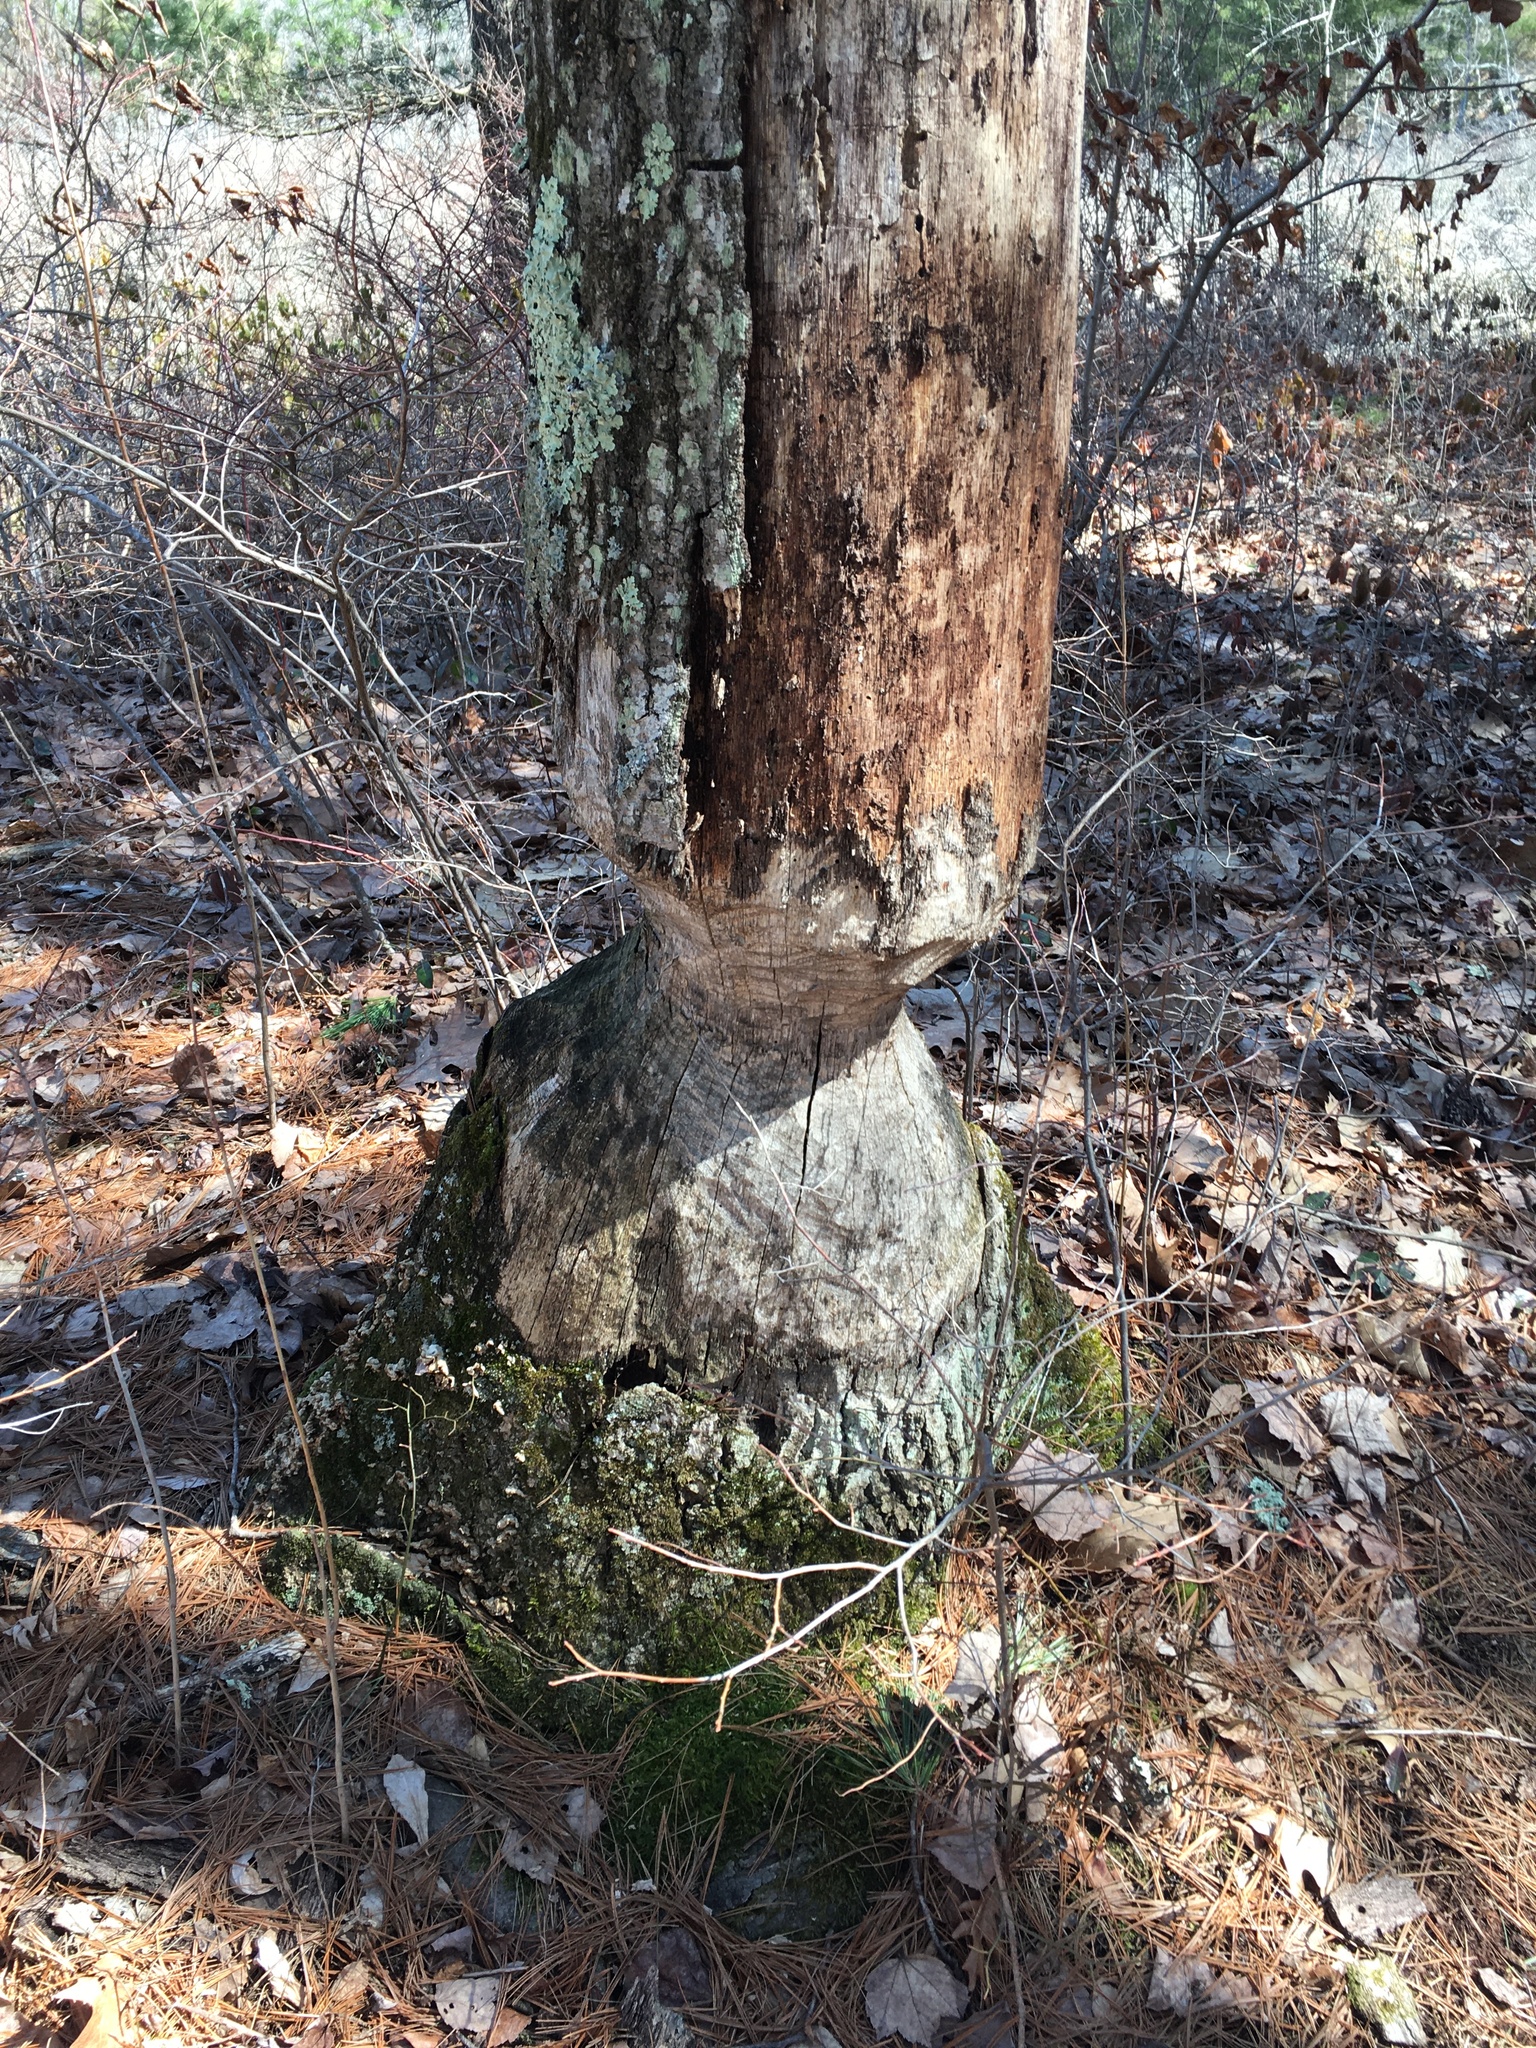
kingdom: Animalia
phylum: Chordata
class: Mammalia
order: Rodentia
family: Castoridae
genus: Castor
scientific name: Castor canadensis
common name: American beaver
